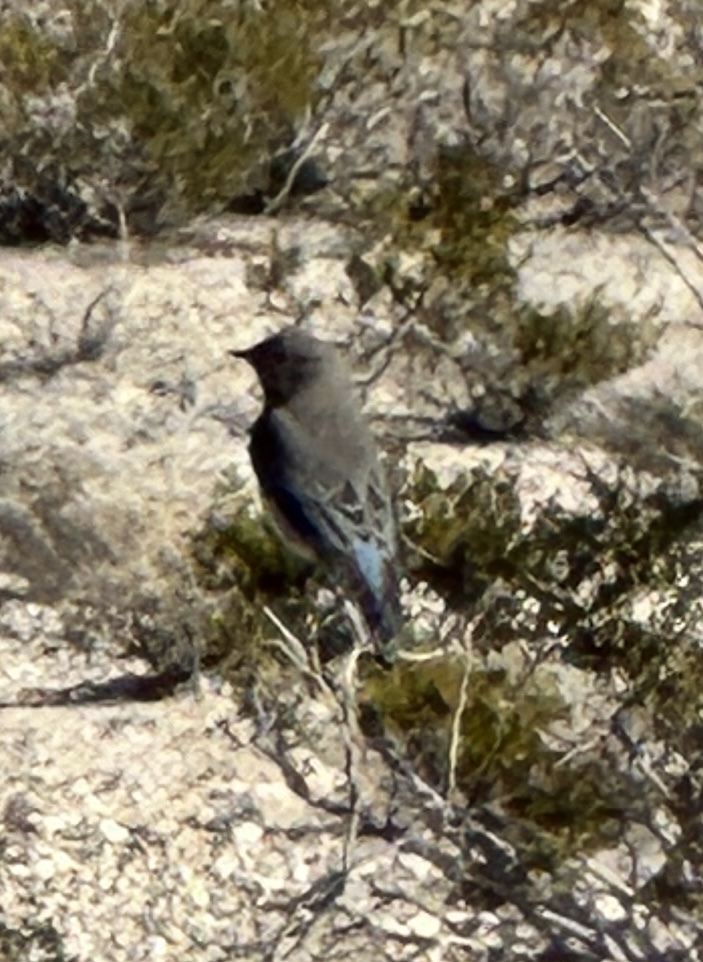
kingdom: Animalia
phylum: Chordata
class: Aves
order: Passeriformes
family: Turdidae
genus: Sialia
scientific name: Sialia currucoides
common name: Mountain bluebird
